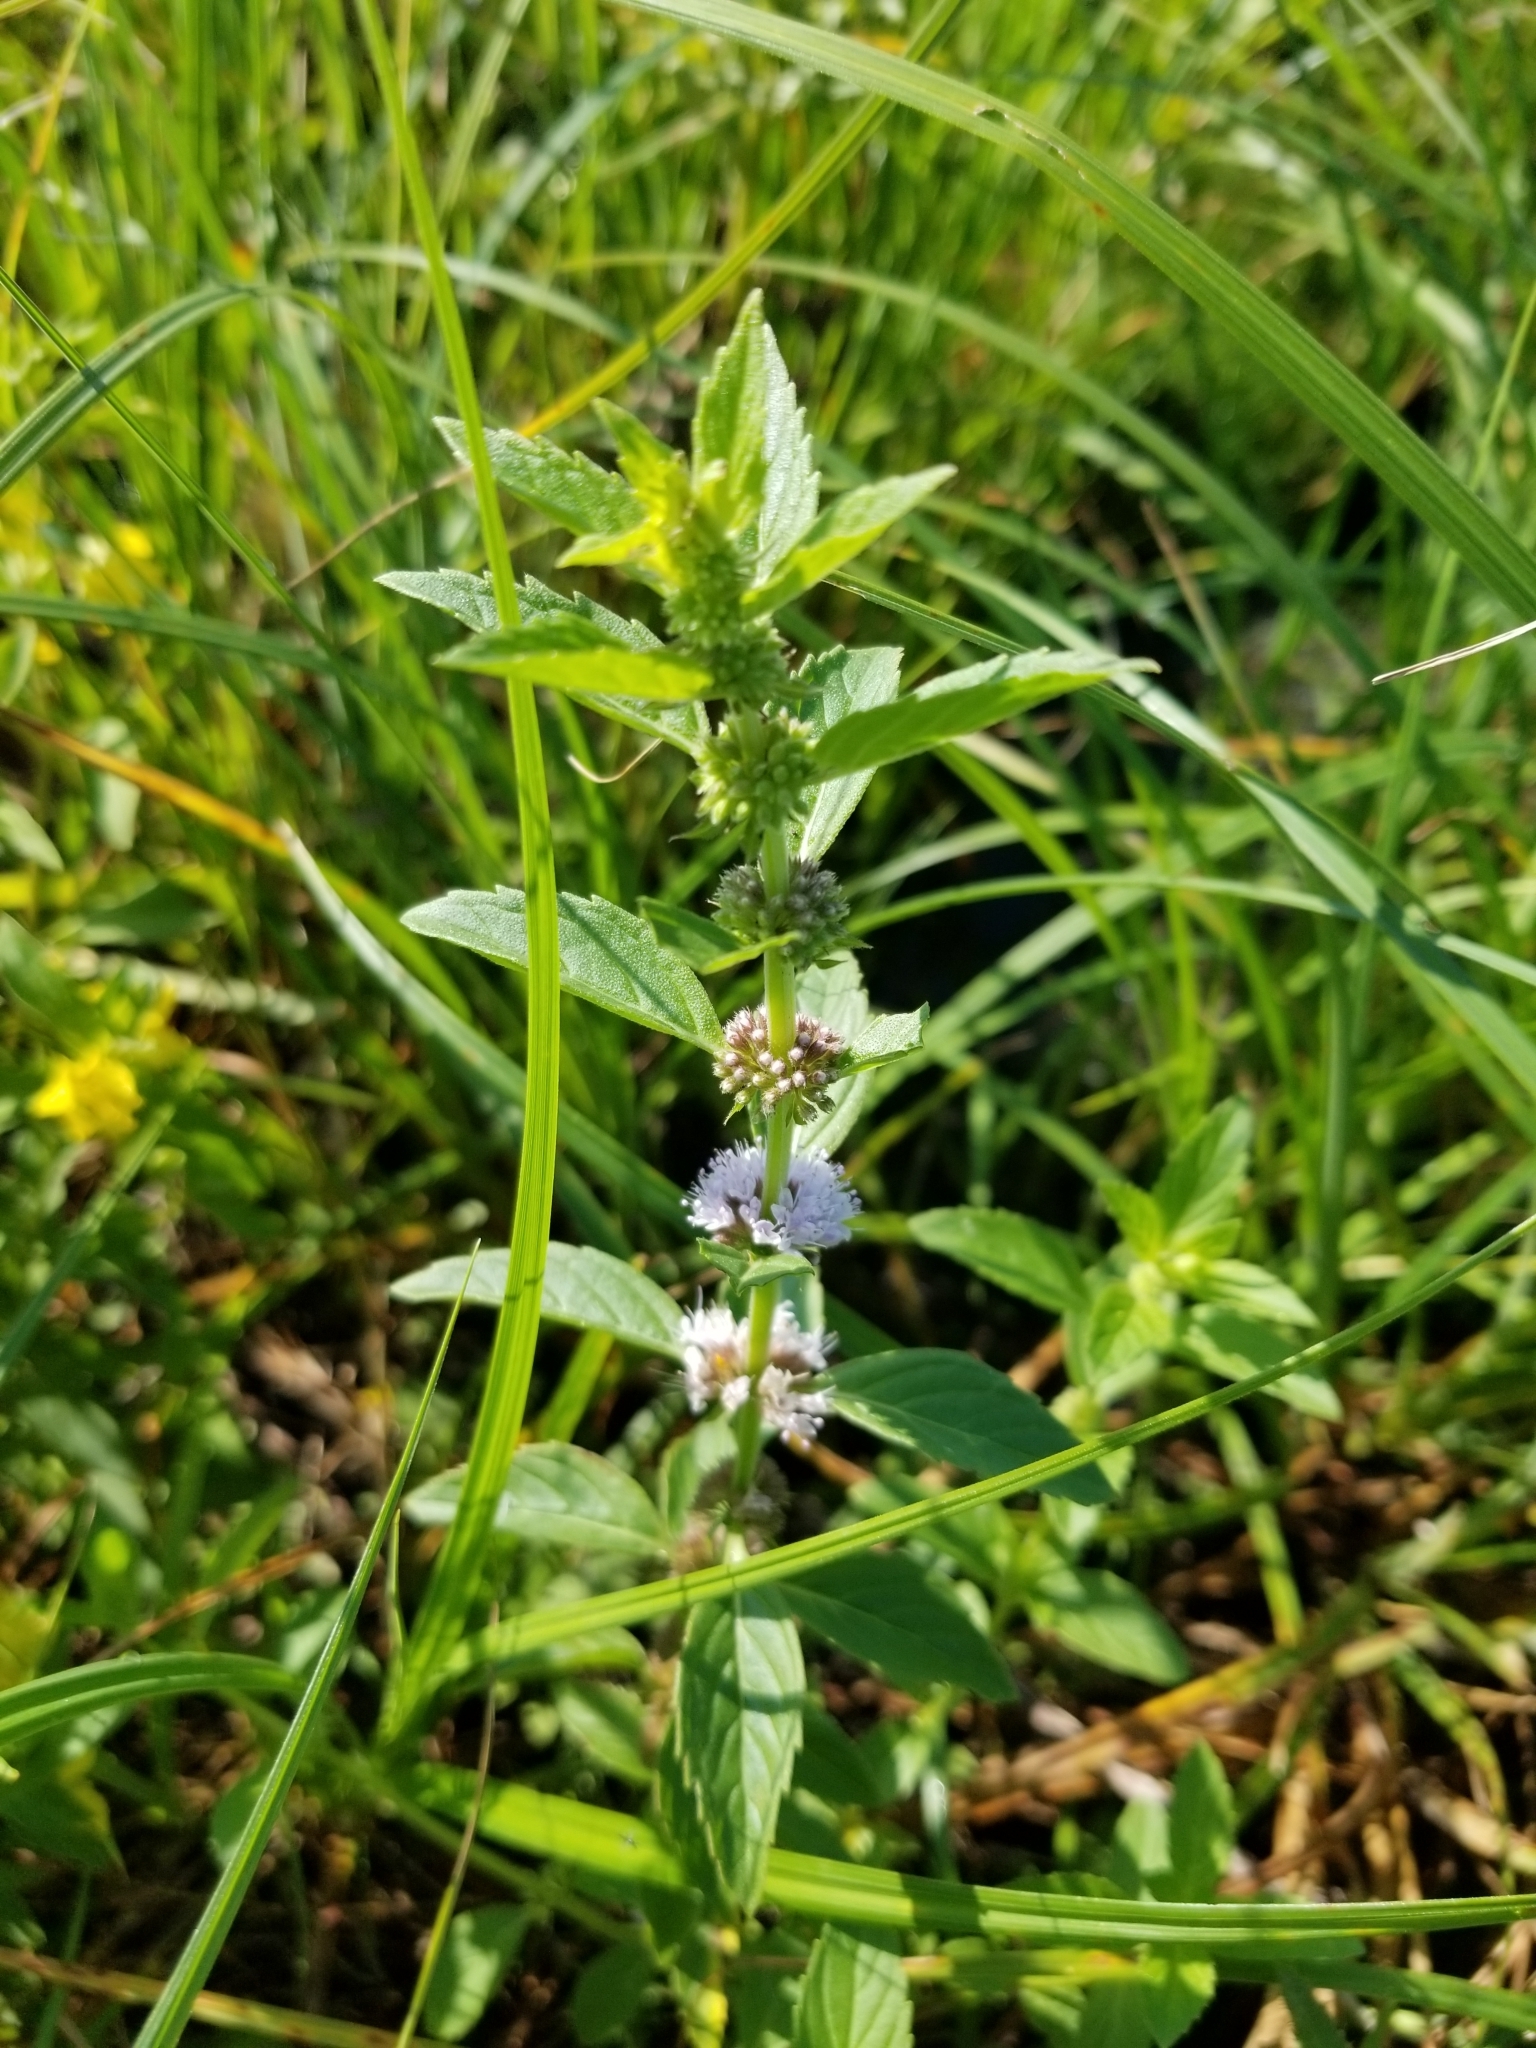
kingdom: Plantae
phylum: Tracheophyta
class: Magnoliopsida
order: Lamiales
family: Lamiaceae
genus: Mentha
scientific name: Mentha canadensis
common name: American corn mint
